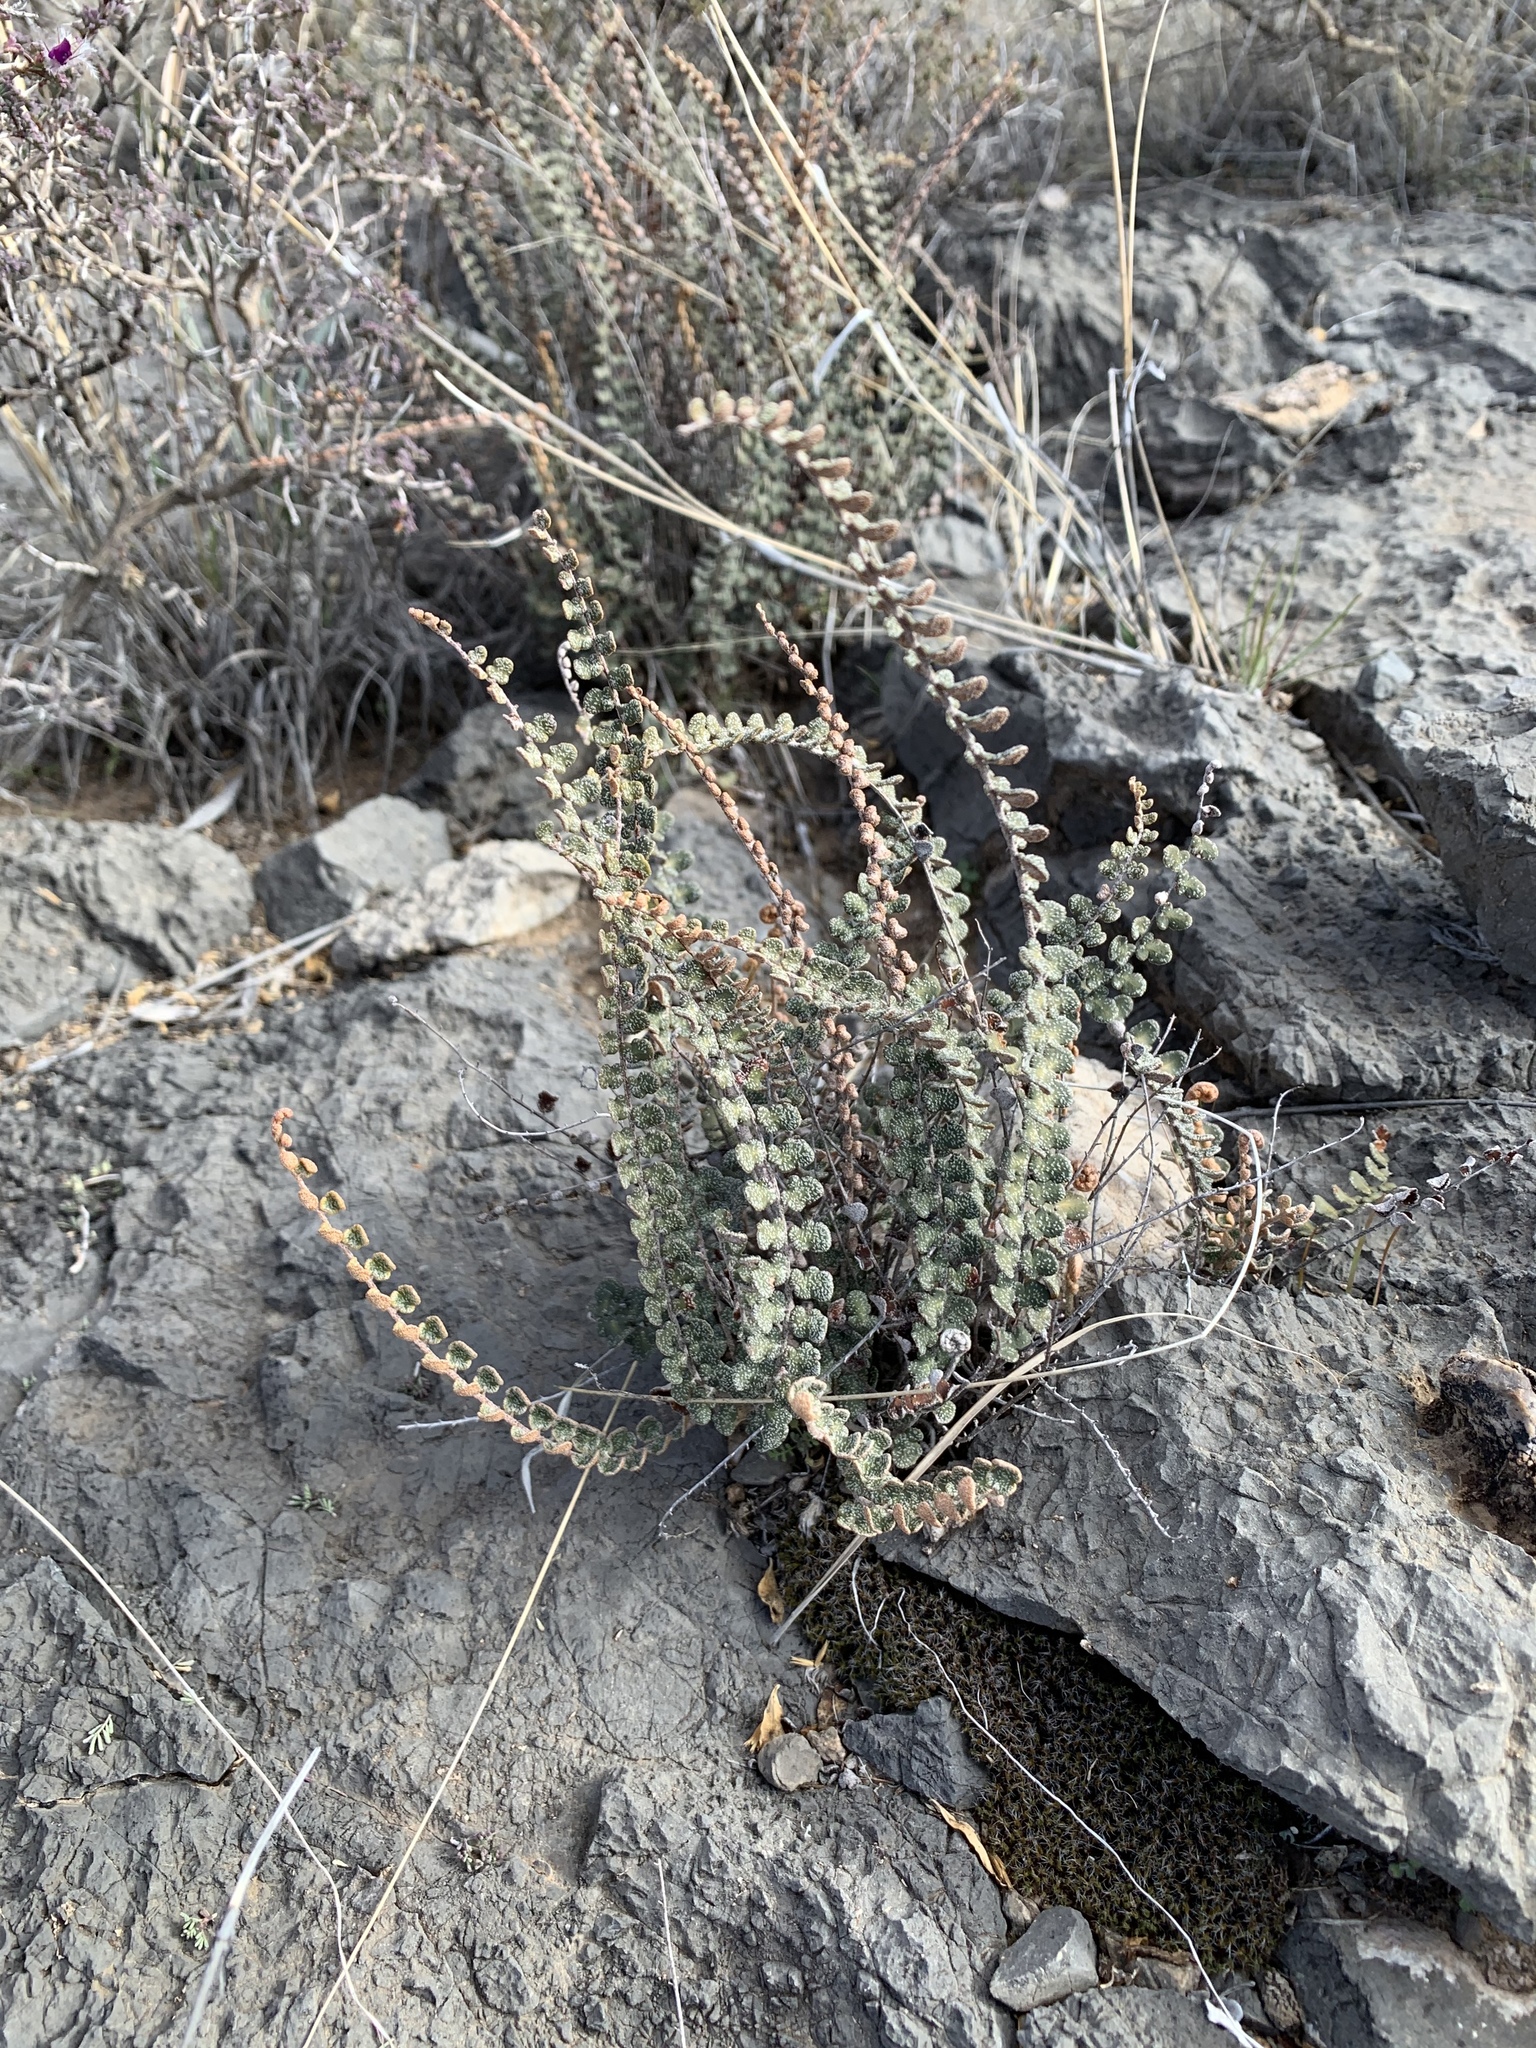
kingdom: Plantae
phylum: Tracheophyta
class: Polypodiopsida
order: Polypodiales
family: Pteridaceae
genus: Astrolepis
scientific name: Astrolepis cochisensis
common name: Scaly cloak fern
